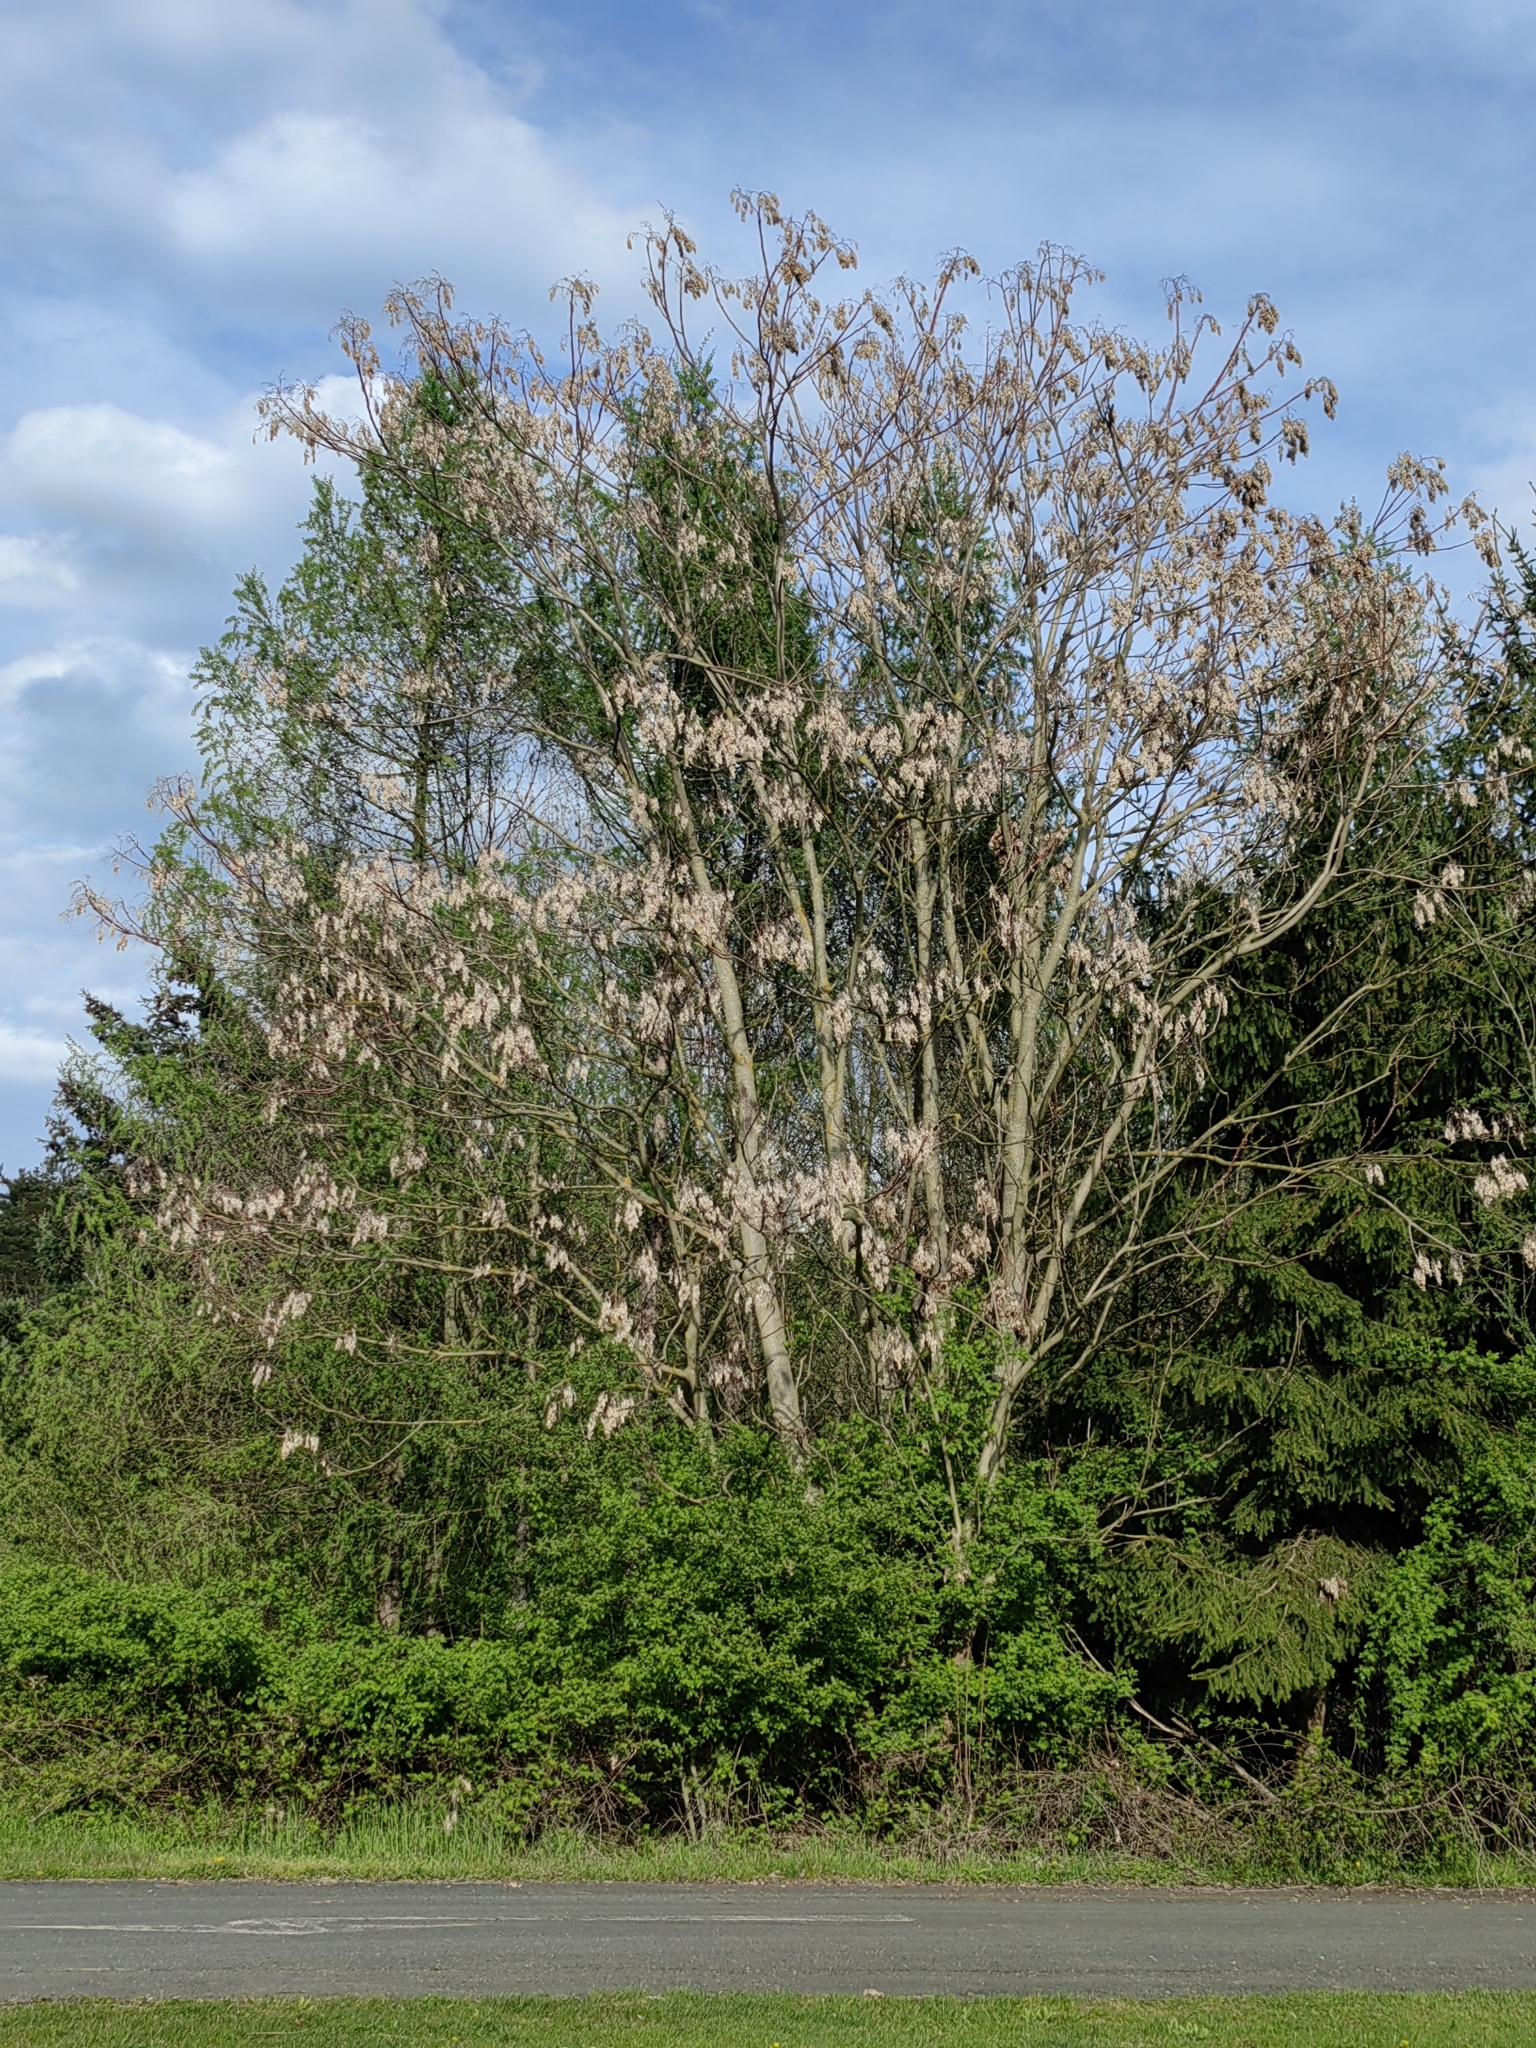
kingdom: Plantae
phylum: Tracheophyta
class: Magnoliopsida
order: Sapindales
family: Simaroubaceae
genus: Ailanthus
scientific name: Ailanthus altissima
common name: Tree-of-heaven
